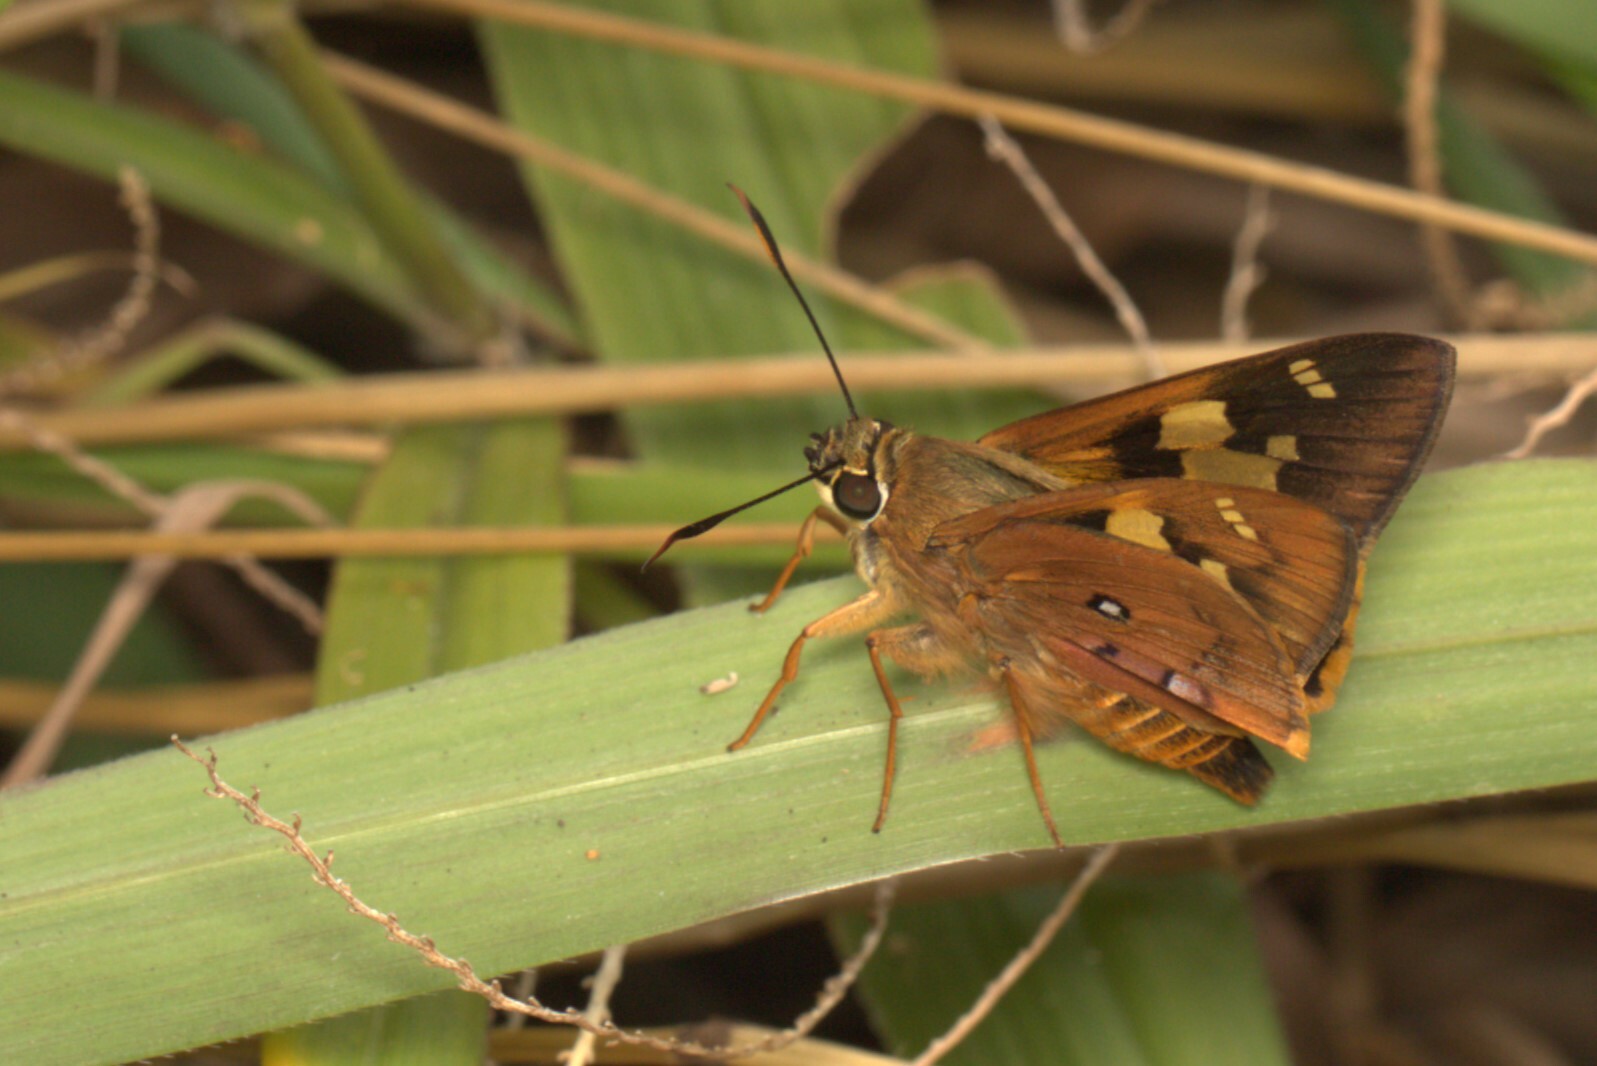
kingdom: Animalia
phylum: Arthropoda
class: Insecta
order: Lepidoptera
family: Hesperiidae
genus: Trapezites
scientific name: Trapezites symmomus
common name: Splendid ochre
